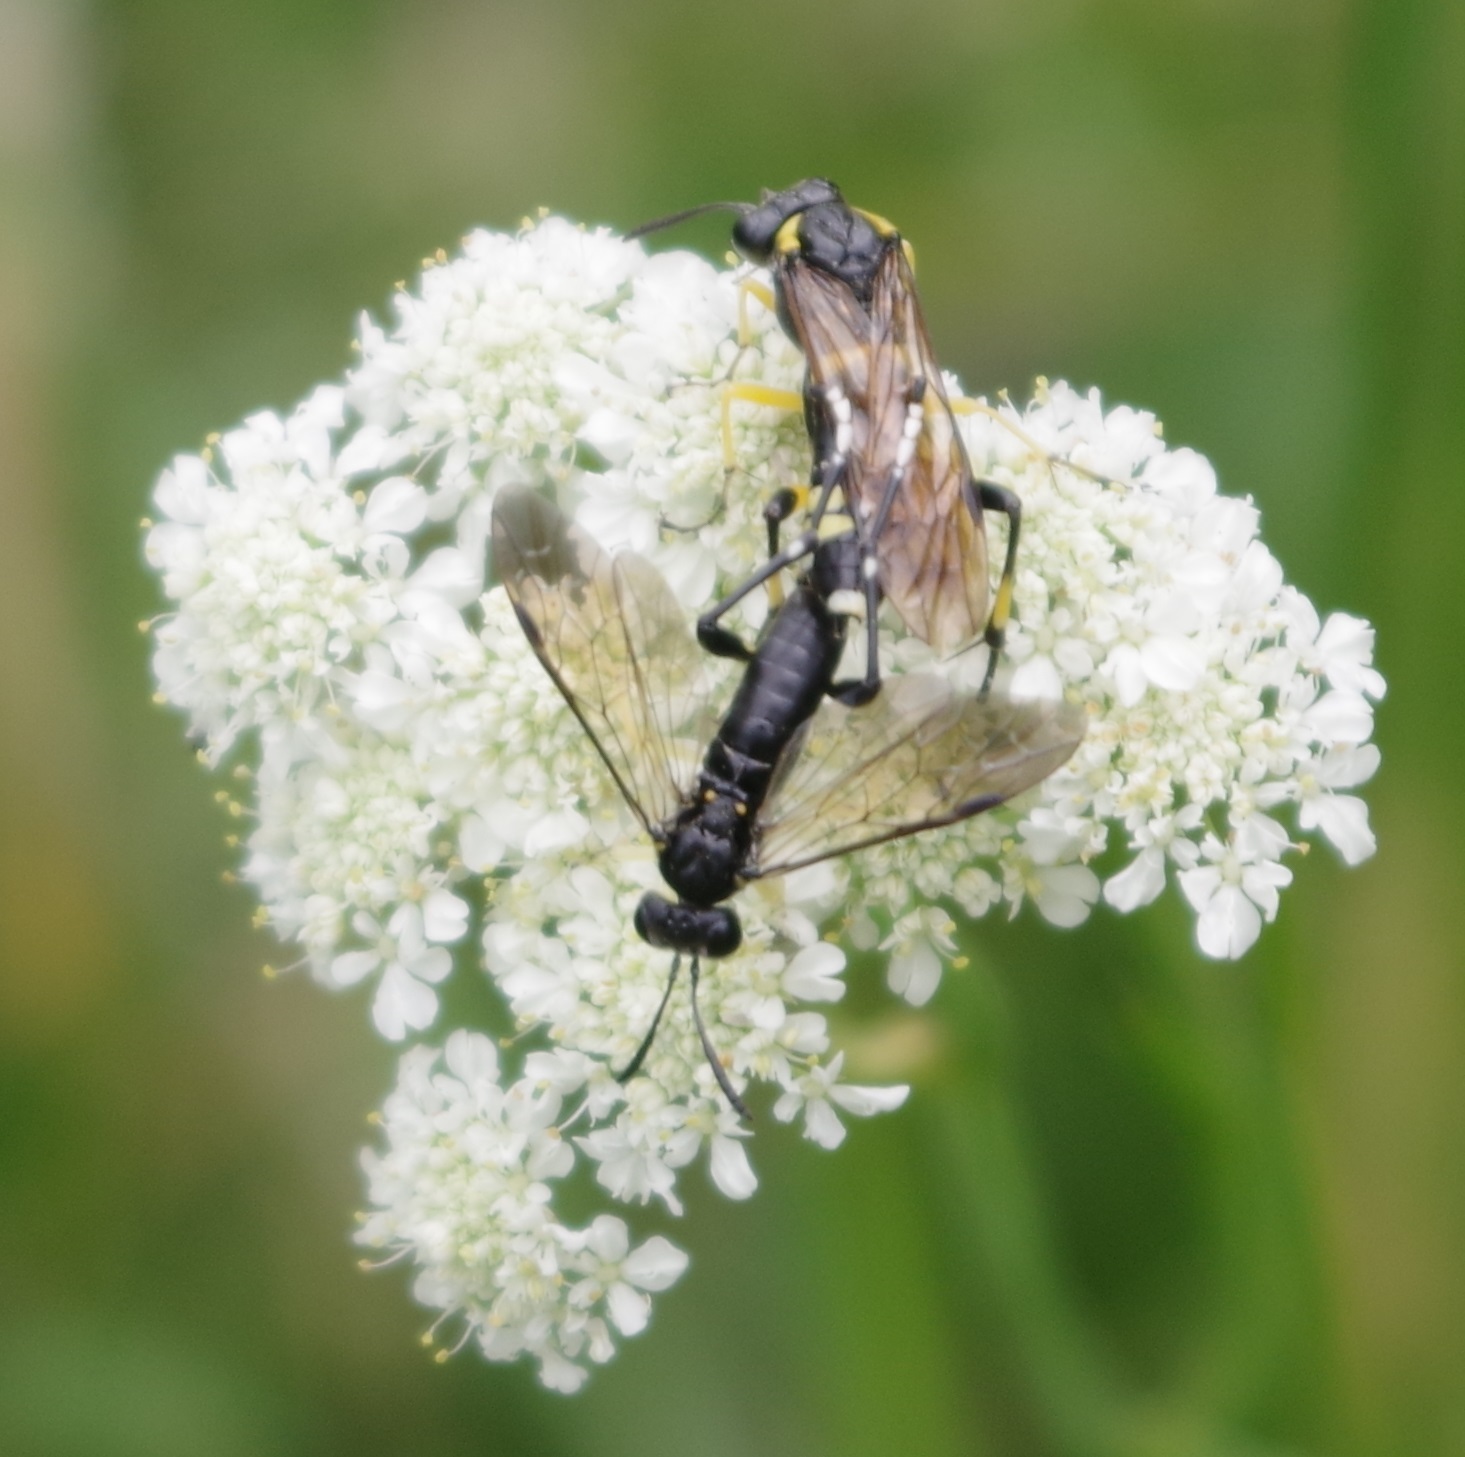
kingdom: Animalia
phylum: Arthropoda
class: Insecta
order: Hymenoptera
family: Tenthredinidae
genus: Macrophya
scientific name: Macrophya montana
